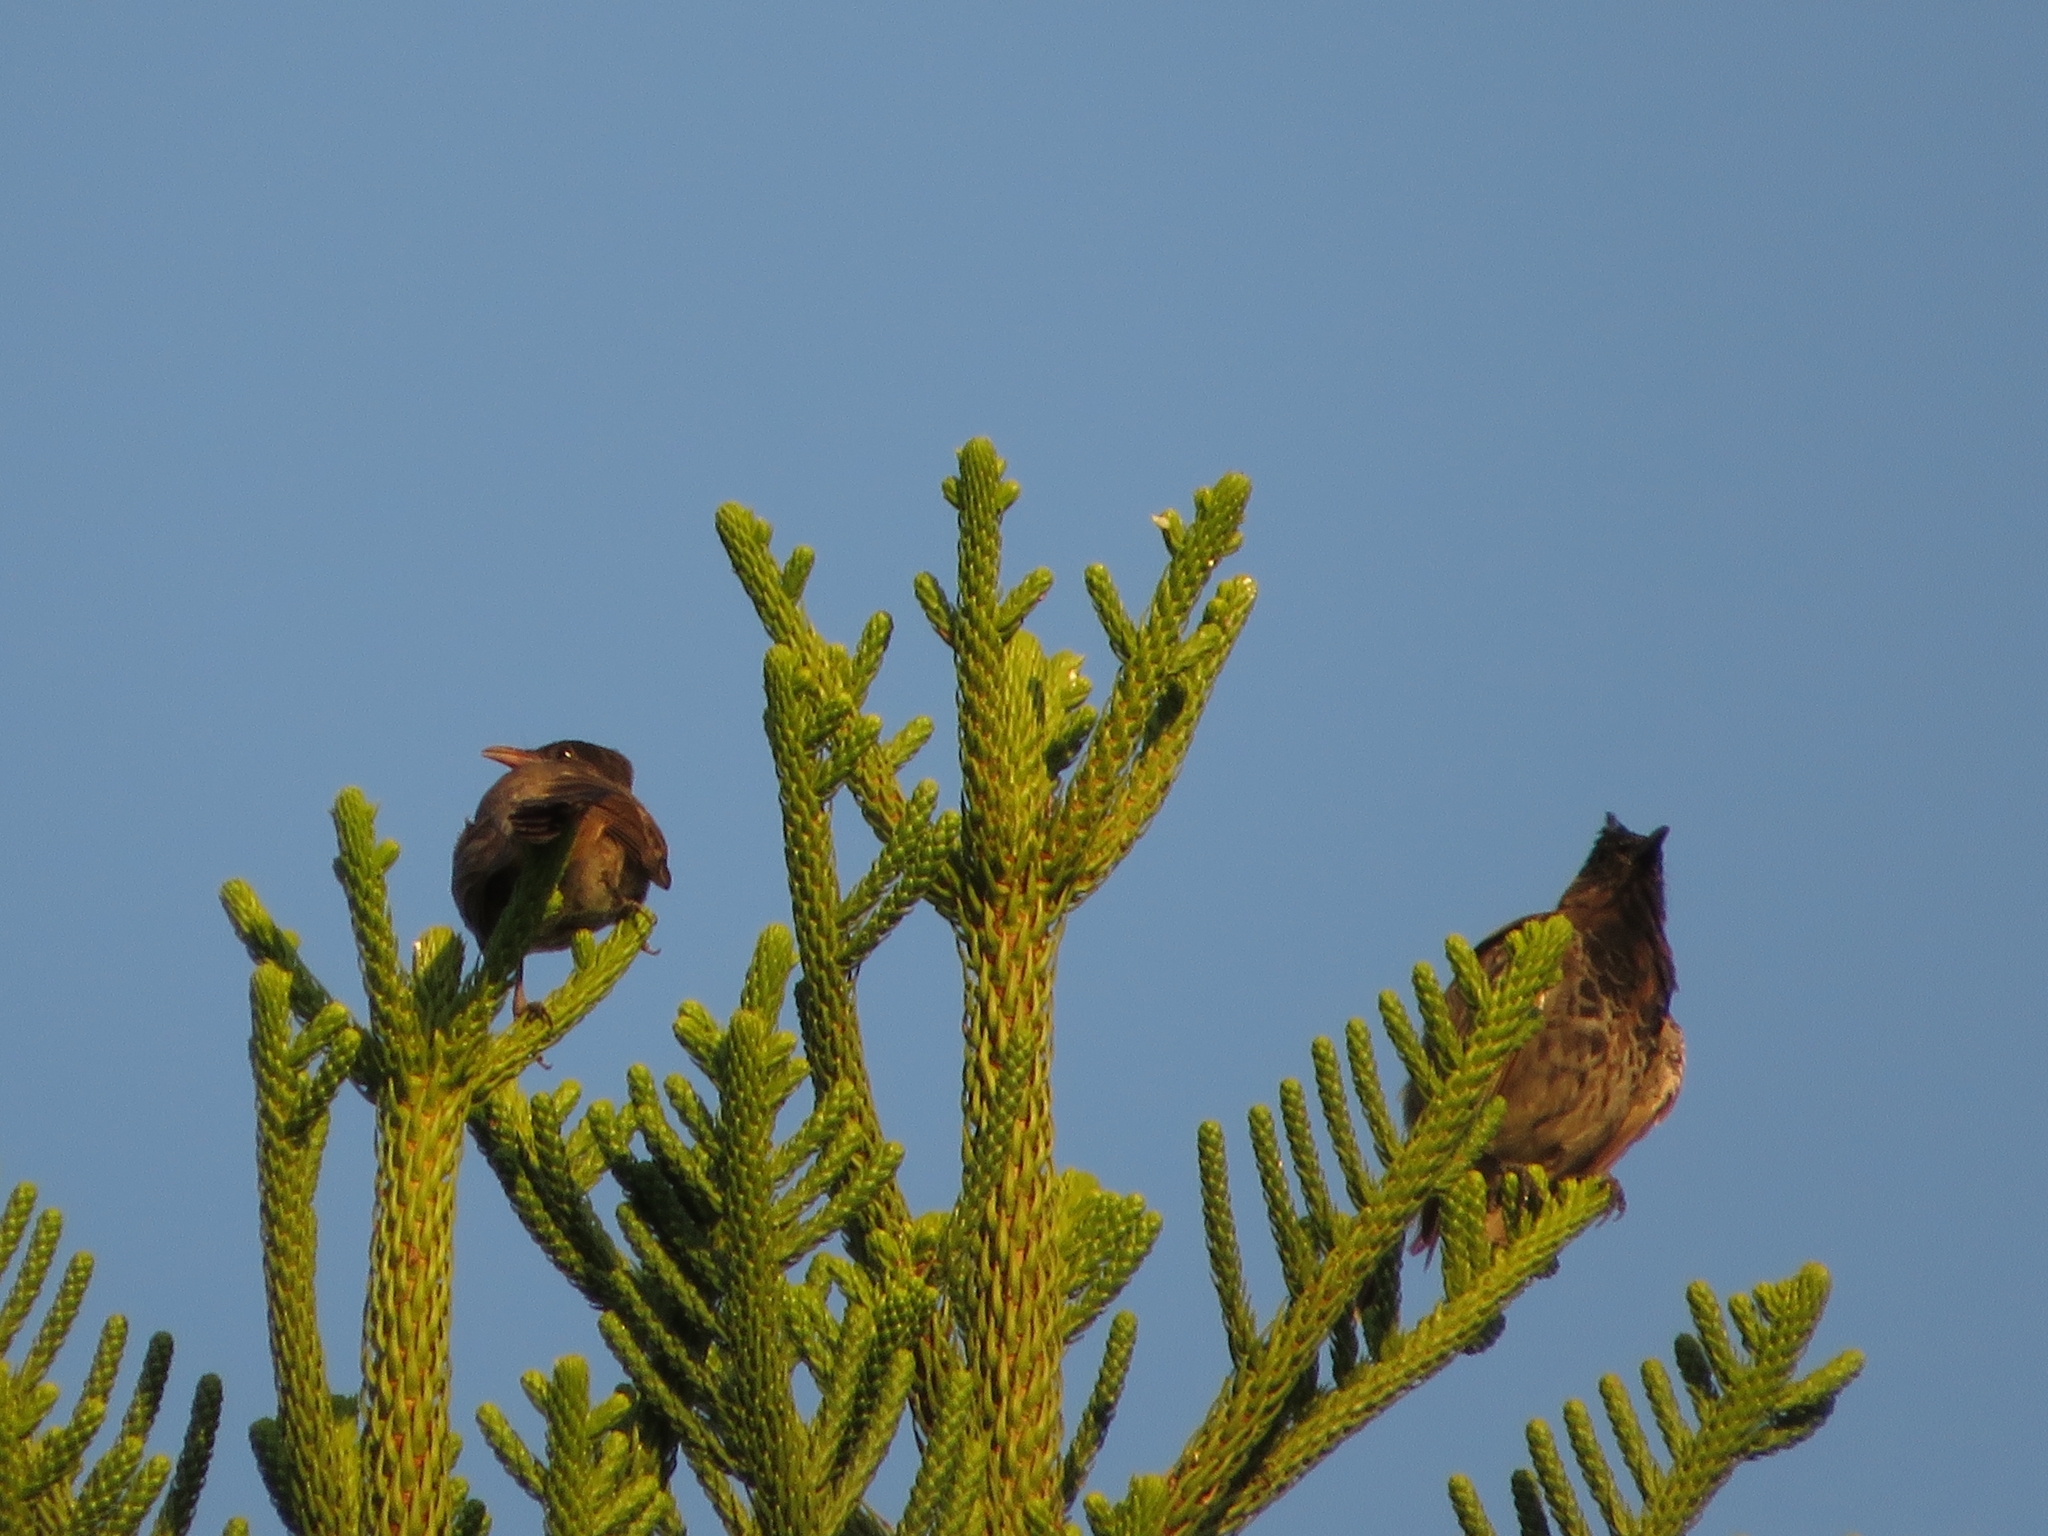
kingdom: Animalia
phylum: Chordata
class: Aves
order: Passeriformes
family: Pycnonotidae
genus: Pycnonotus
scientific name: Pycnonotus cafer
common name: Red-vented bulbul
